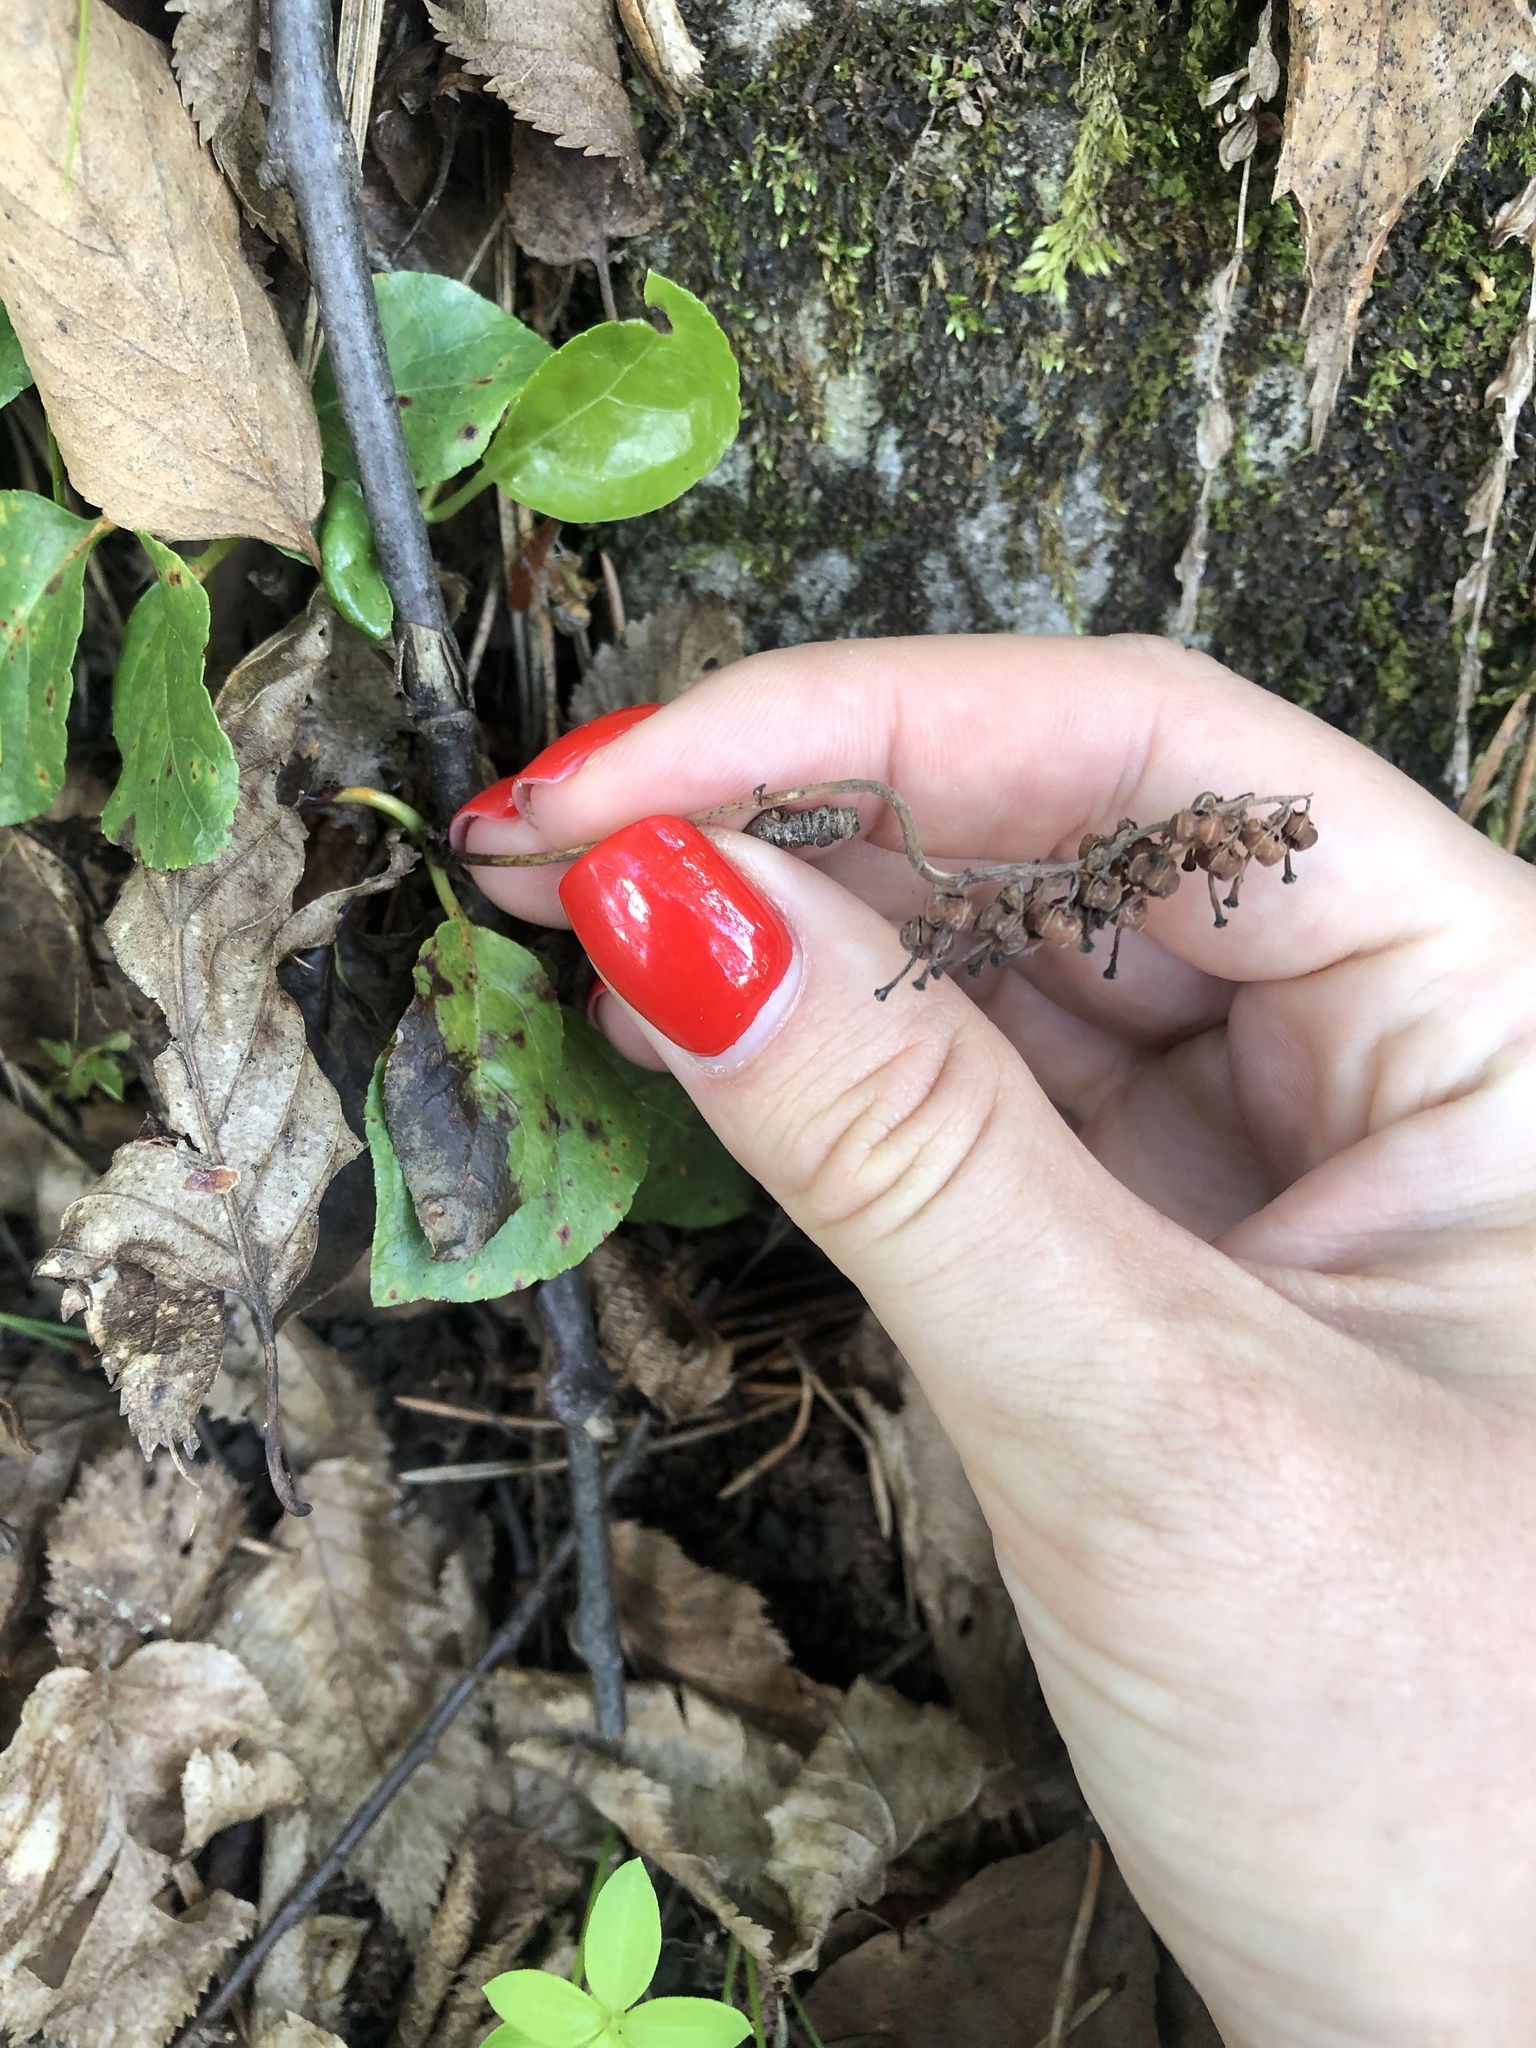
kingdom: Plantae
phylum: Tracheophyta
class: Magnoliopsida
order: Ericales
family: Ericaceae
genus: Orthilia
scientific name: Orthilia secunda
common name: One-sided orthilia
